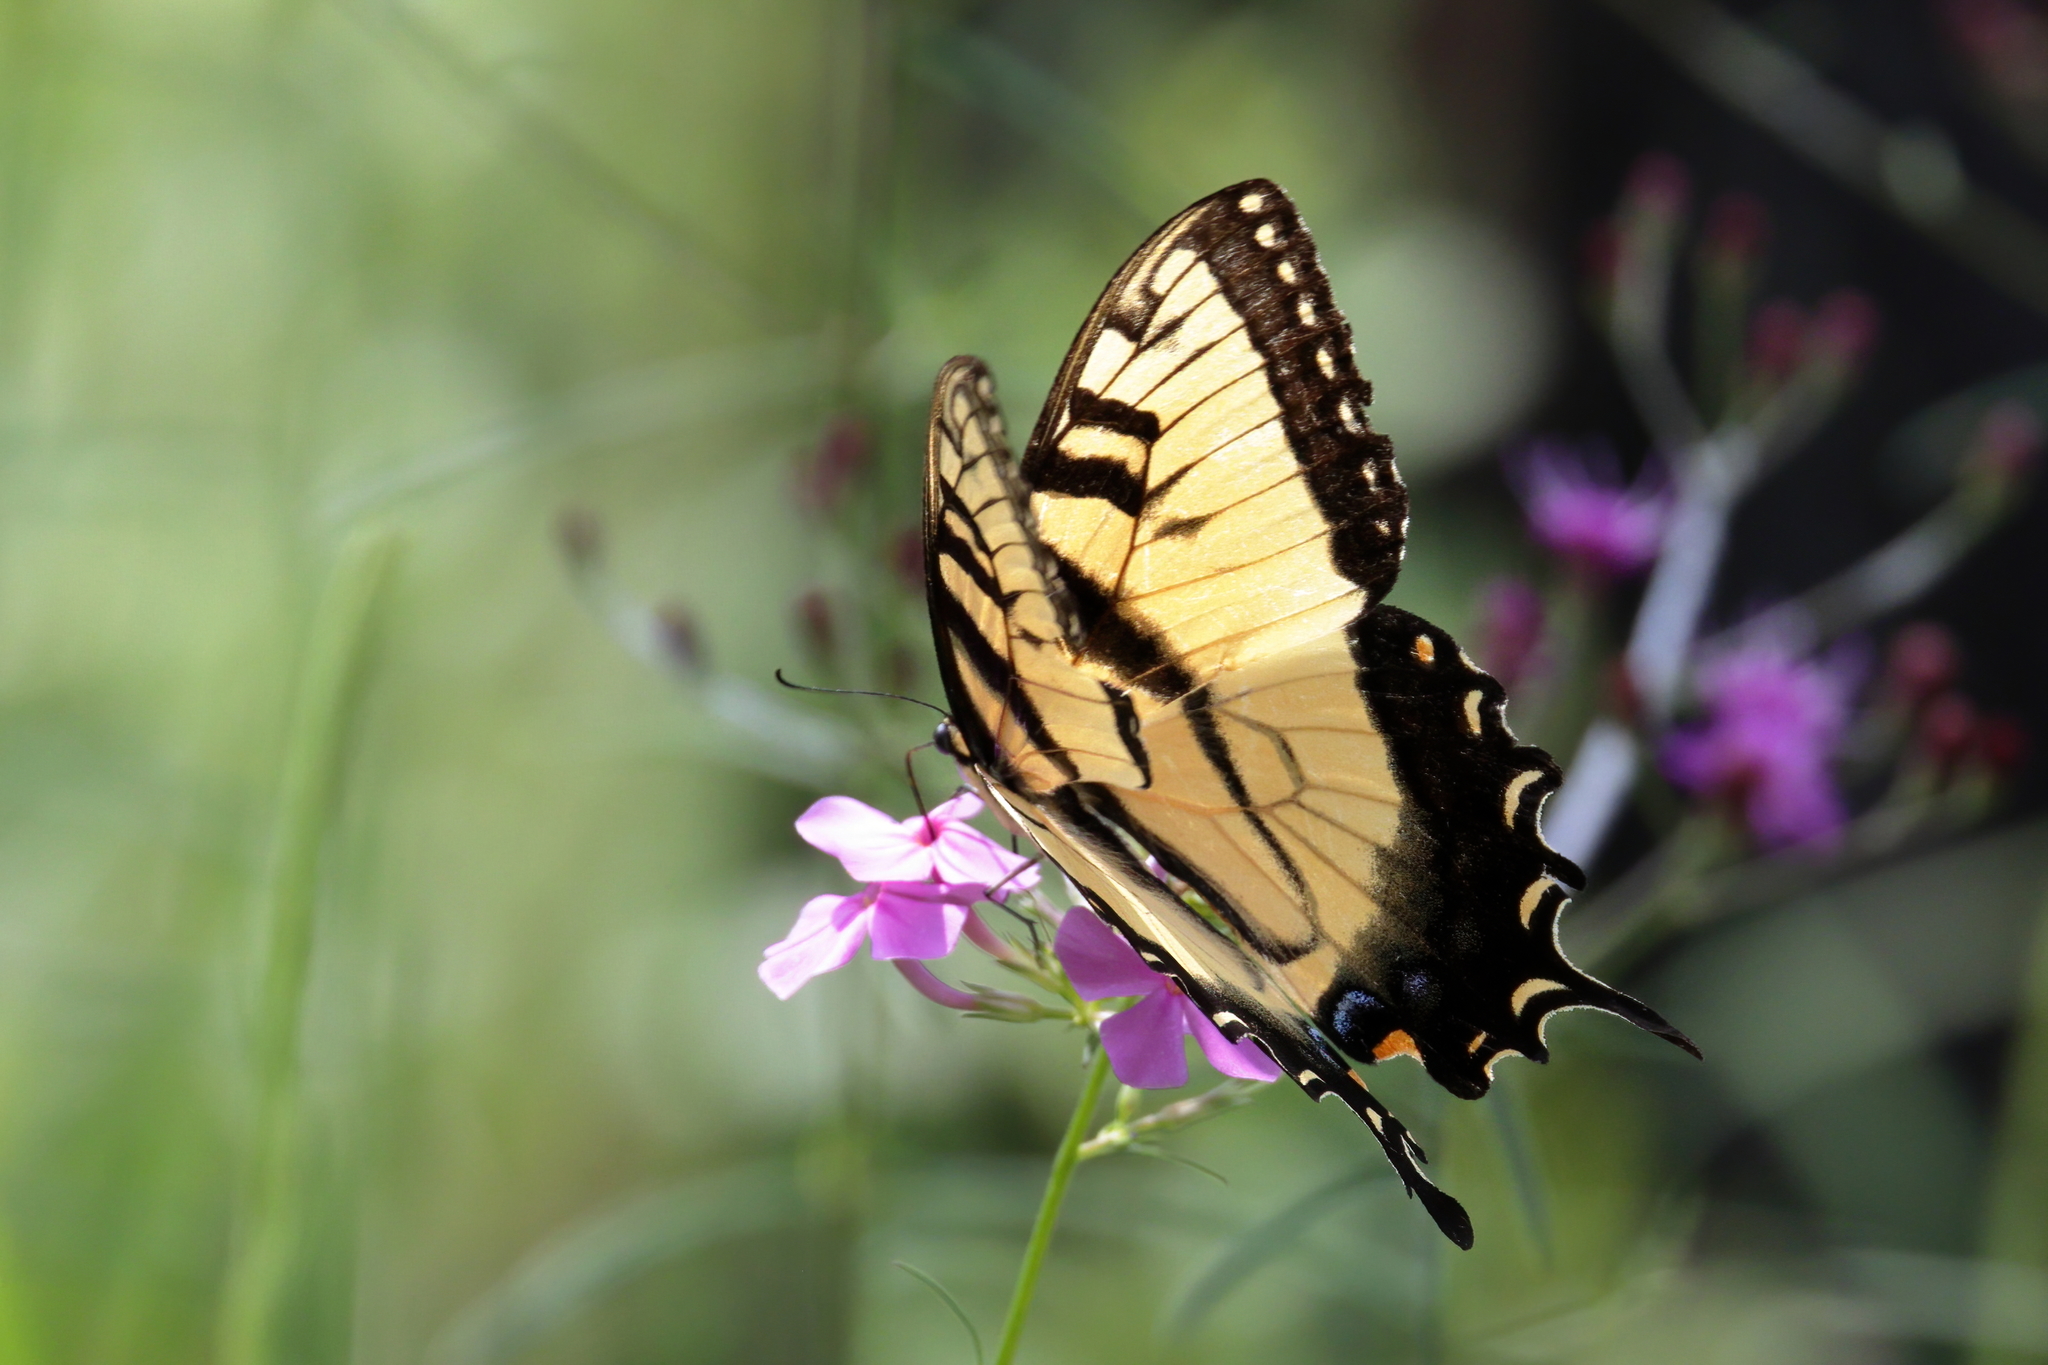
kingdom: Animalia
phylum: Arthropoda
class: Insecta
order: Lepidoptera
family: Papilionidae
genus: Papilio
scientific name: Papilio glaucus
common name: Tiger swallowtail
